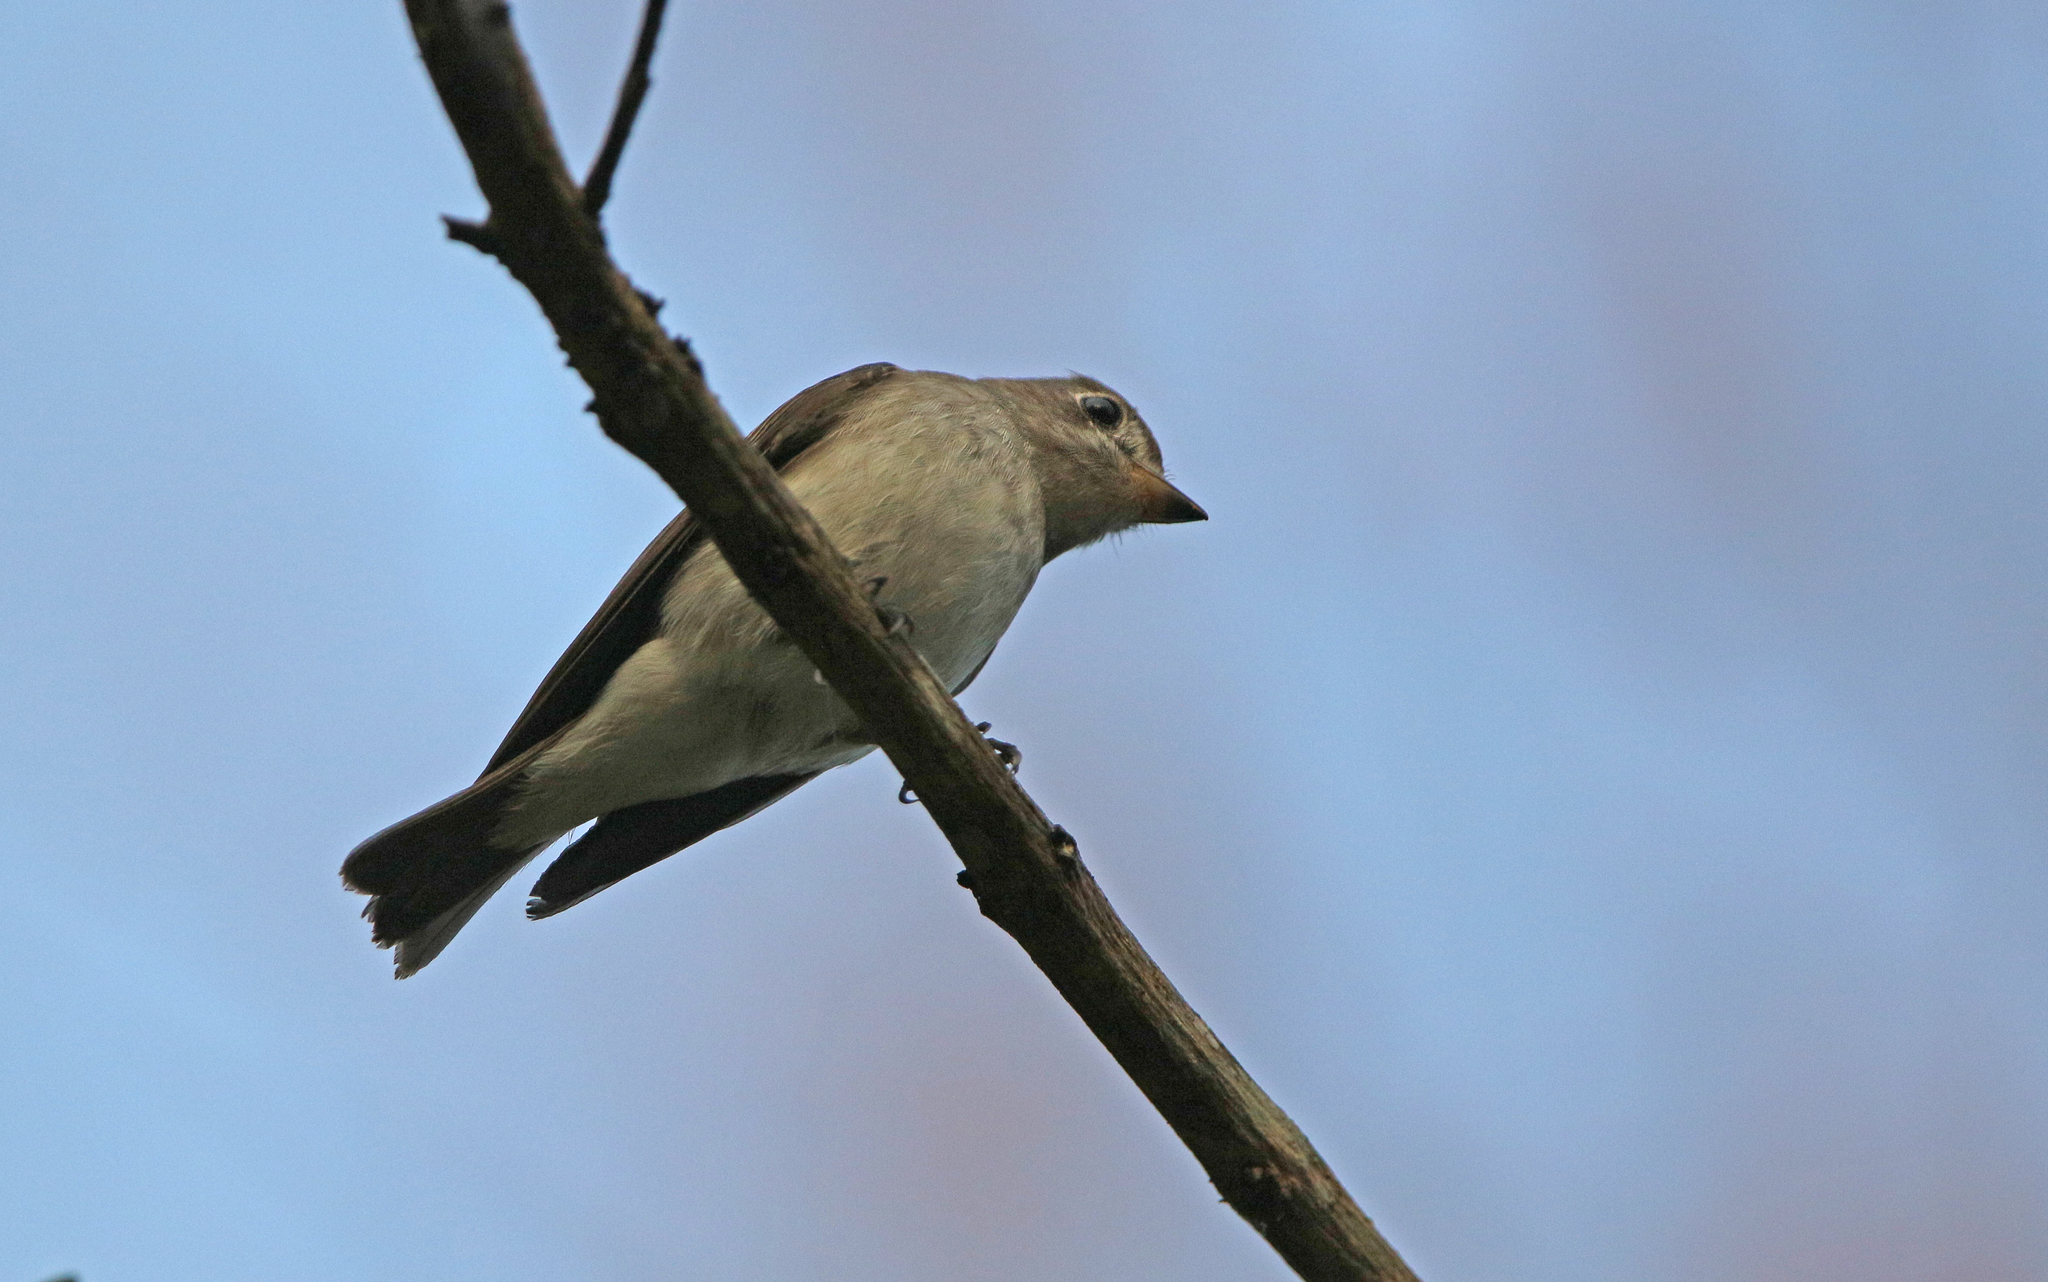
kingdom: Animalia
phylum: Chordata
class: Aves
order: Passeriformes
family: Muscicapidae
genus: Muscicapa
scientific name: Muscicapa latirostris
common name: Asian brown flycatcher
